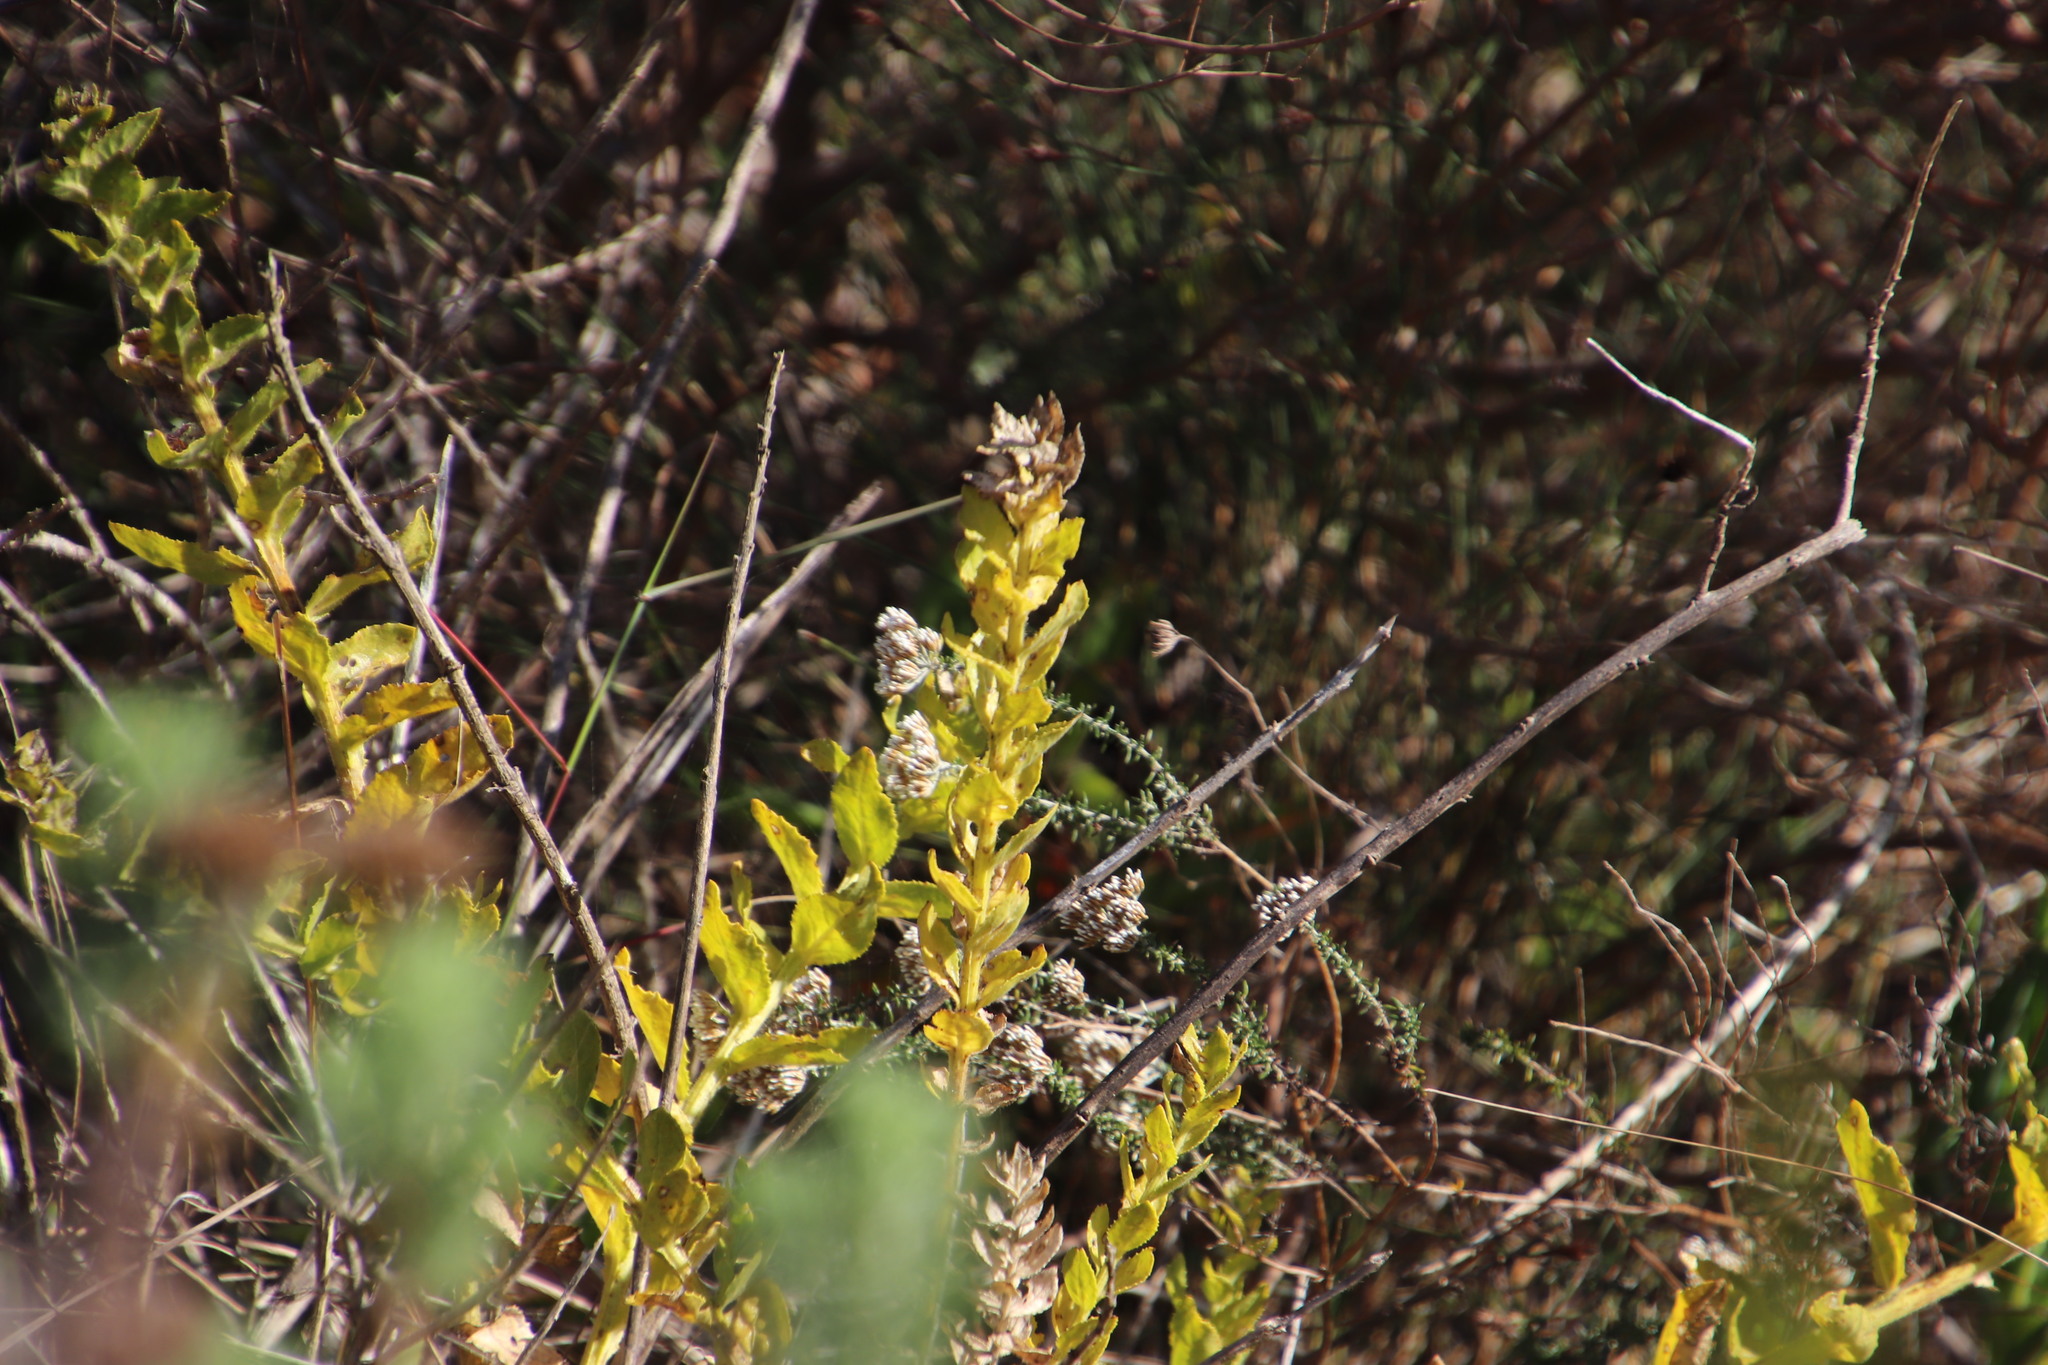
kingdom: Plantae
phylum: Tracheophyta
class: Magnoliopsida
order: Lamiales
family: Scrophulariaceae
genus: Oftia
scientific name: Oftia africana
